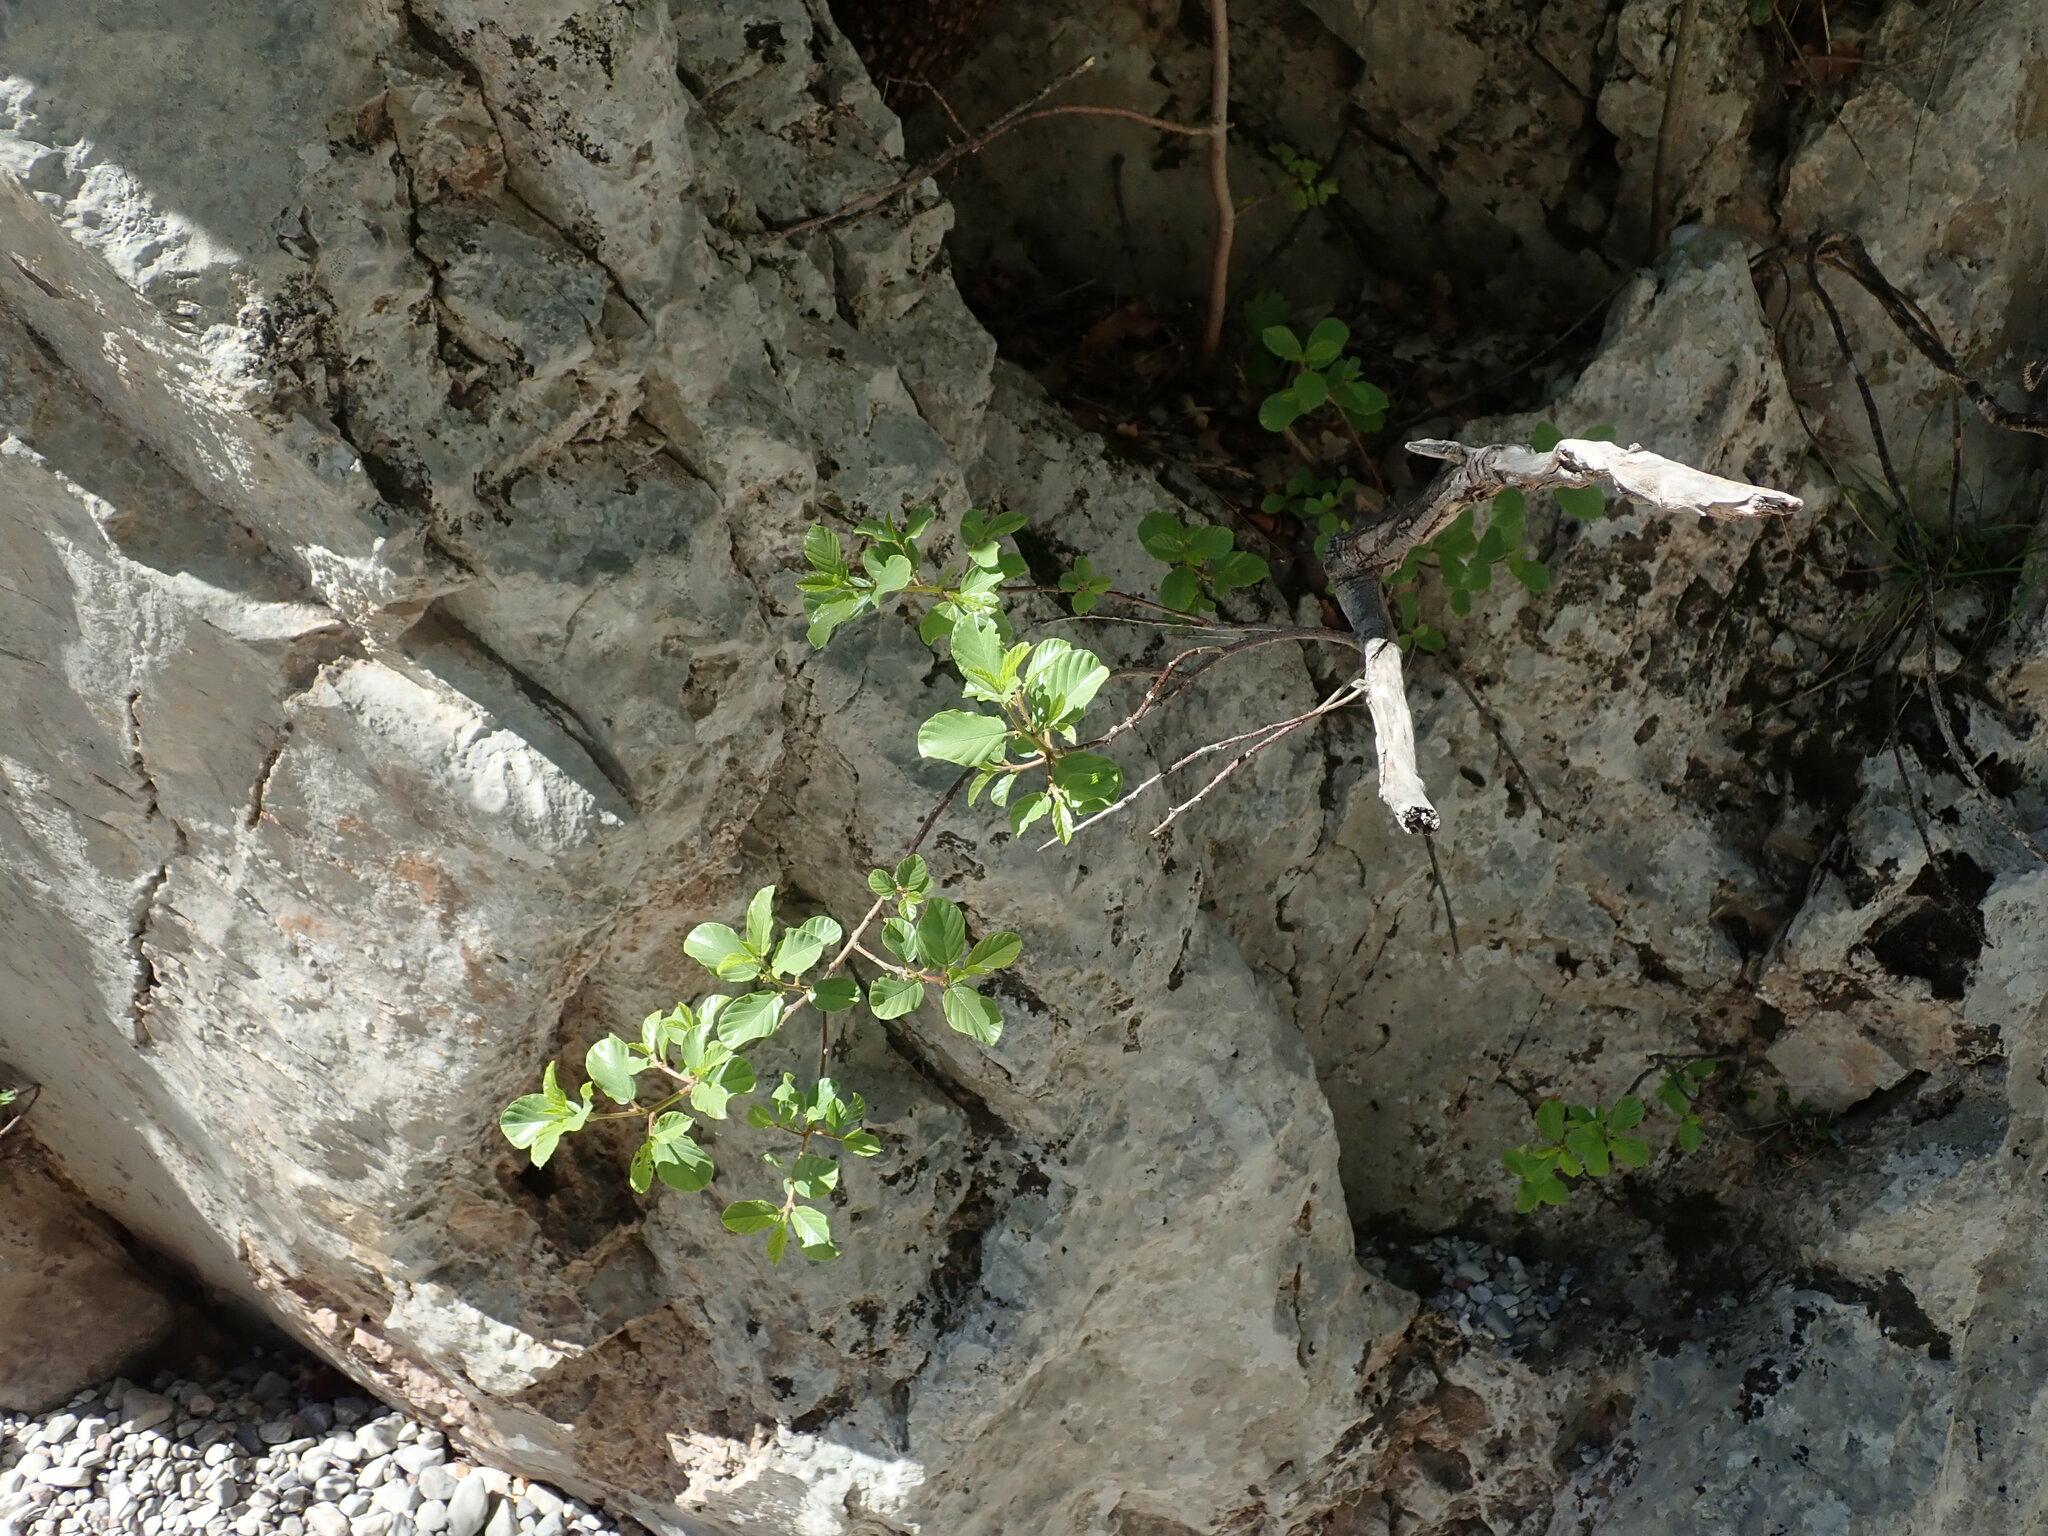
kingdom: Plantae
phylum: Tracheophyta
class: Magnoliopsida
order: Rosales
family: Rhamnaceae
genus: Frangula
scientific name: Frangula rupestris
